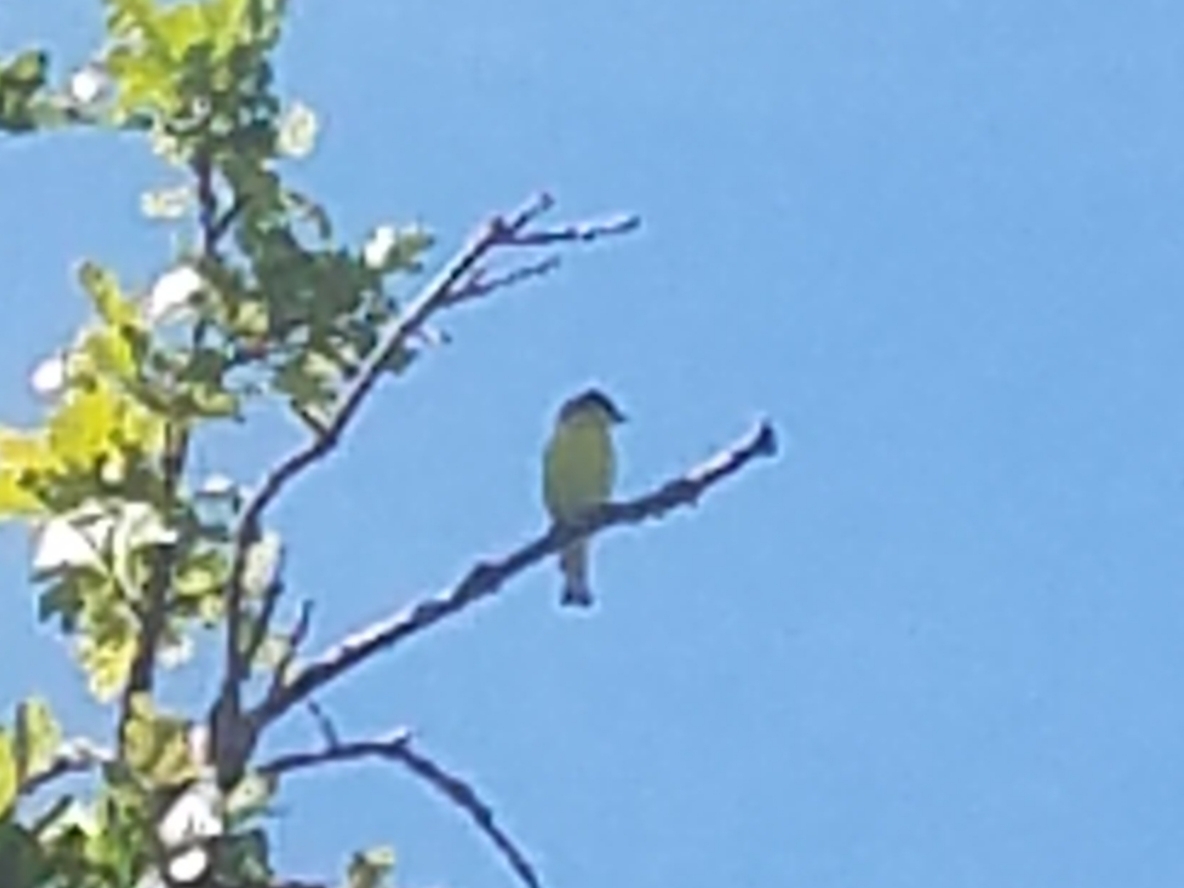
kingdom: Animalia
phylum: Chordata
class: Aves
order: Passeriformes
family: Fringillidae
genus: Spinus
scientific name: Spinus psaltria
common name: Lesser goldfinch
